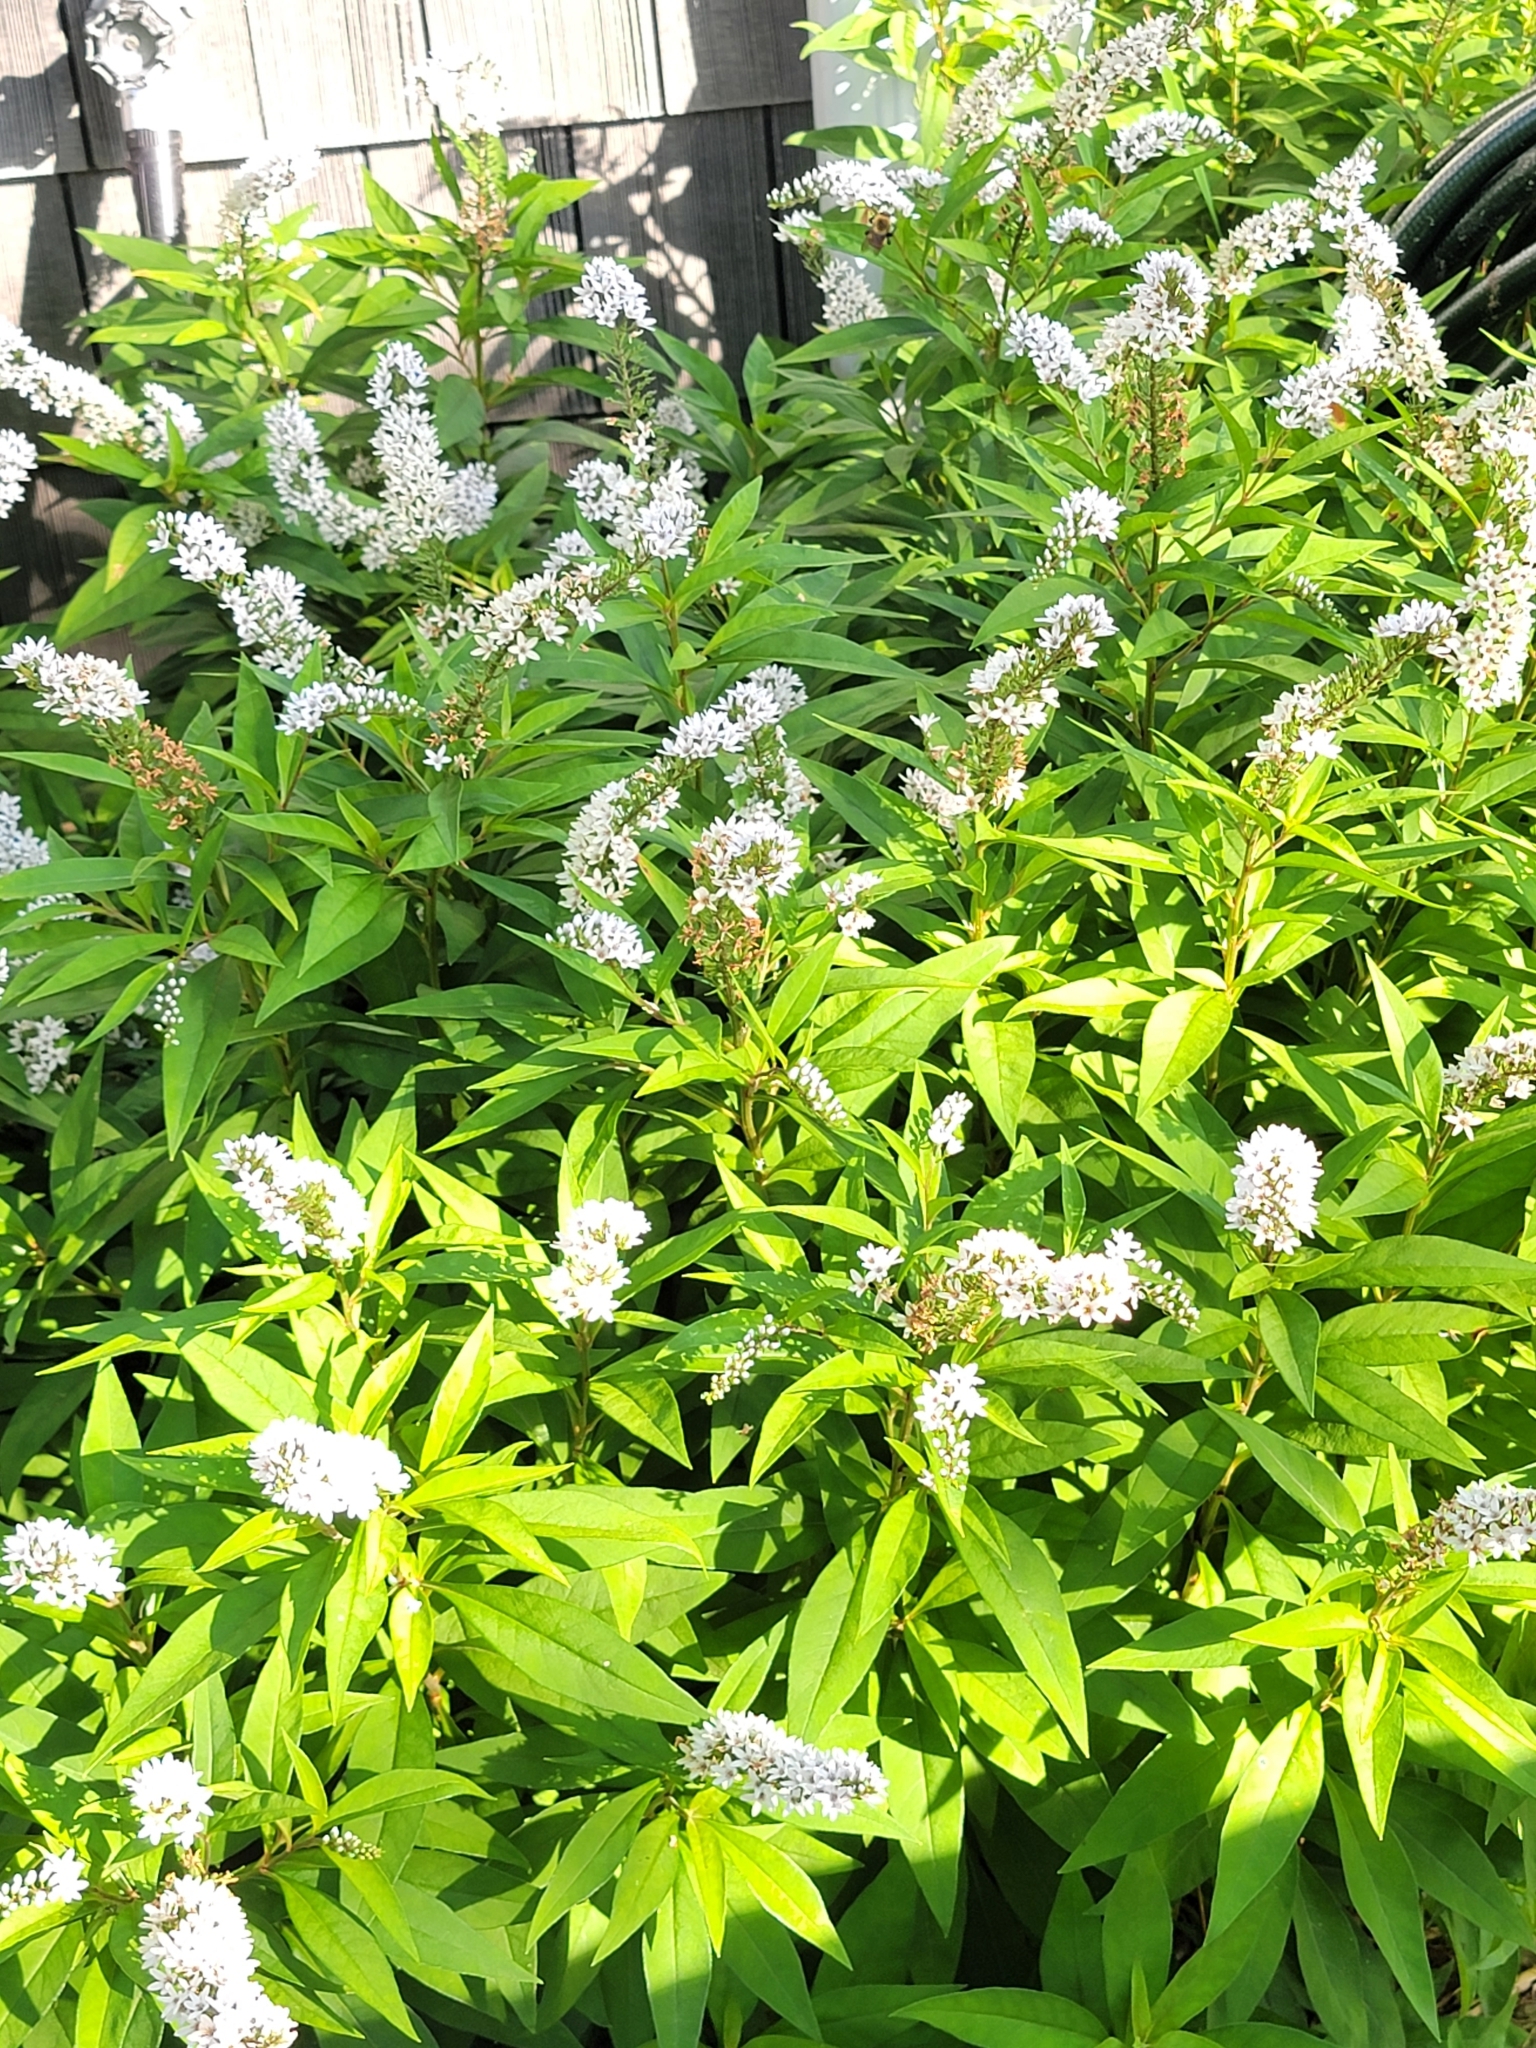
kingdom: Plantae
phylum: Tracheophyta
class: Magnoliopsida
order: Ericales
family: Primulaceae
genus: Lysimachia
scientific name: Lysimachia clethroides
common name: Gooseneck loosestrife
